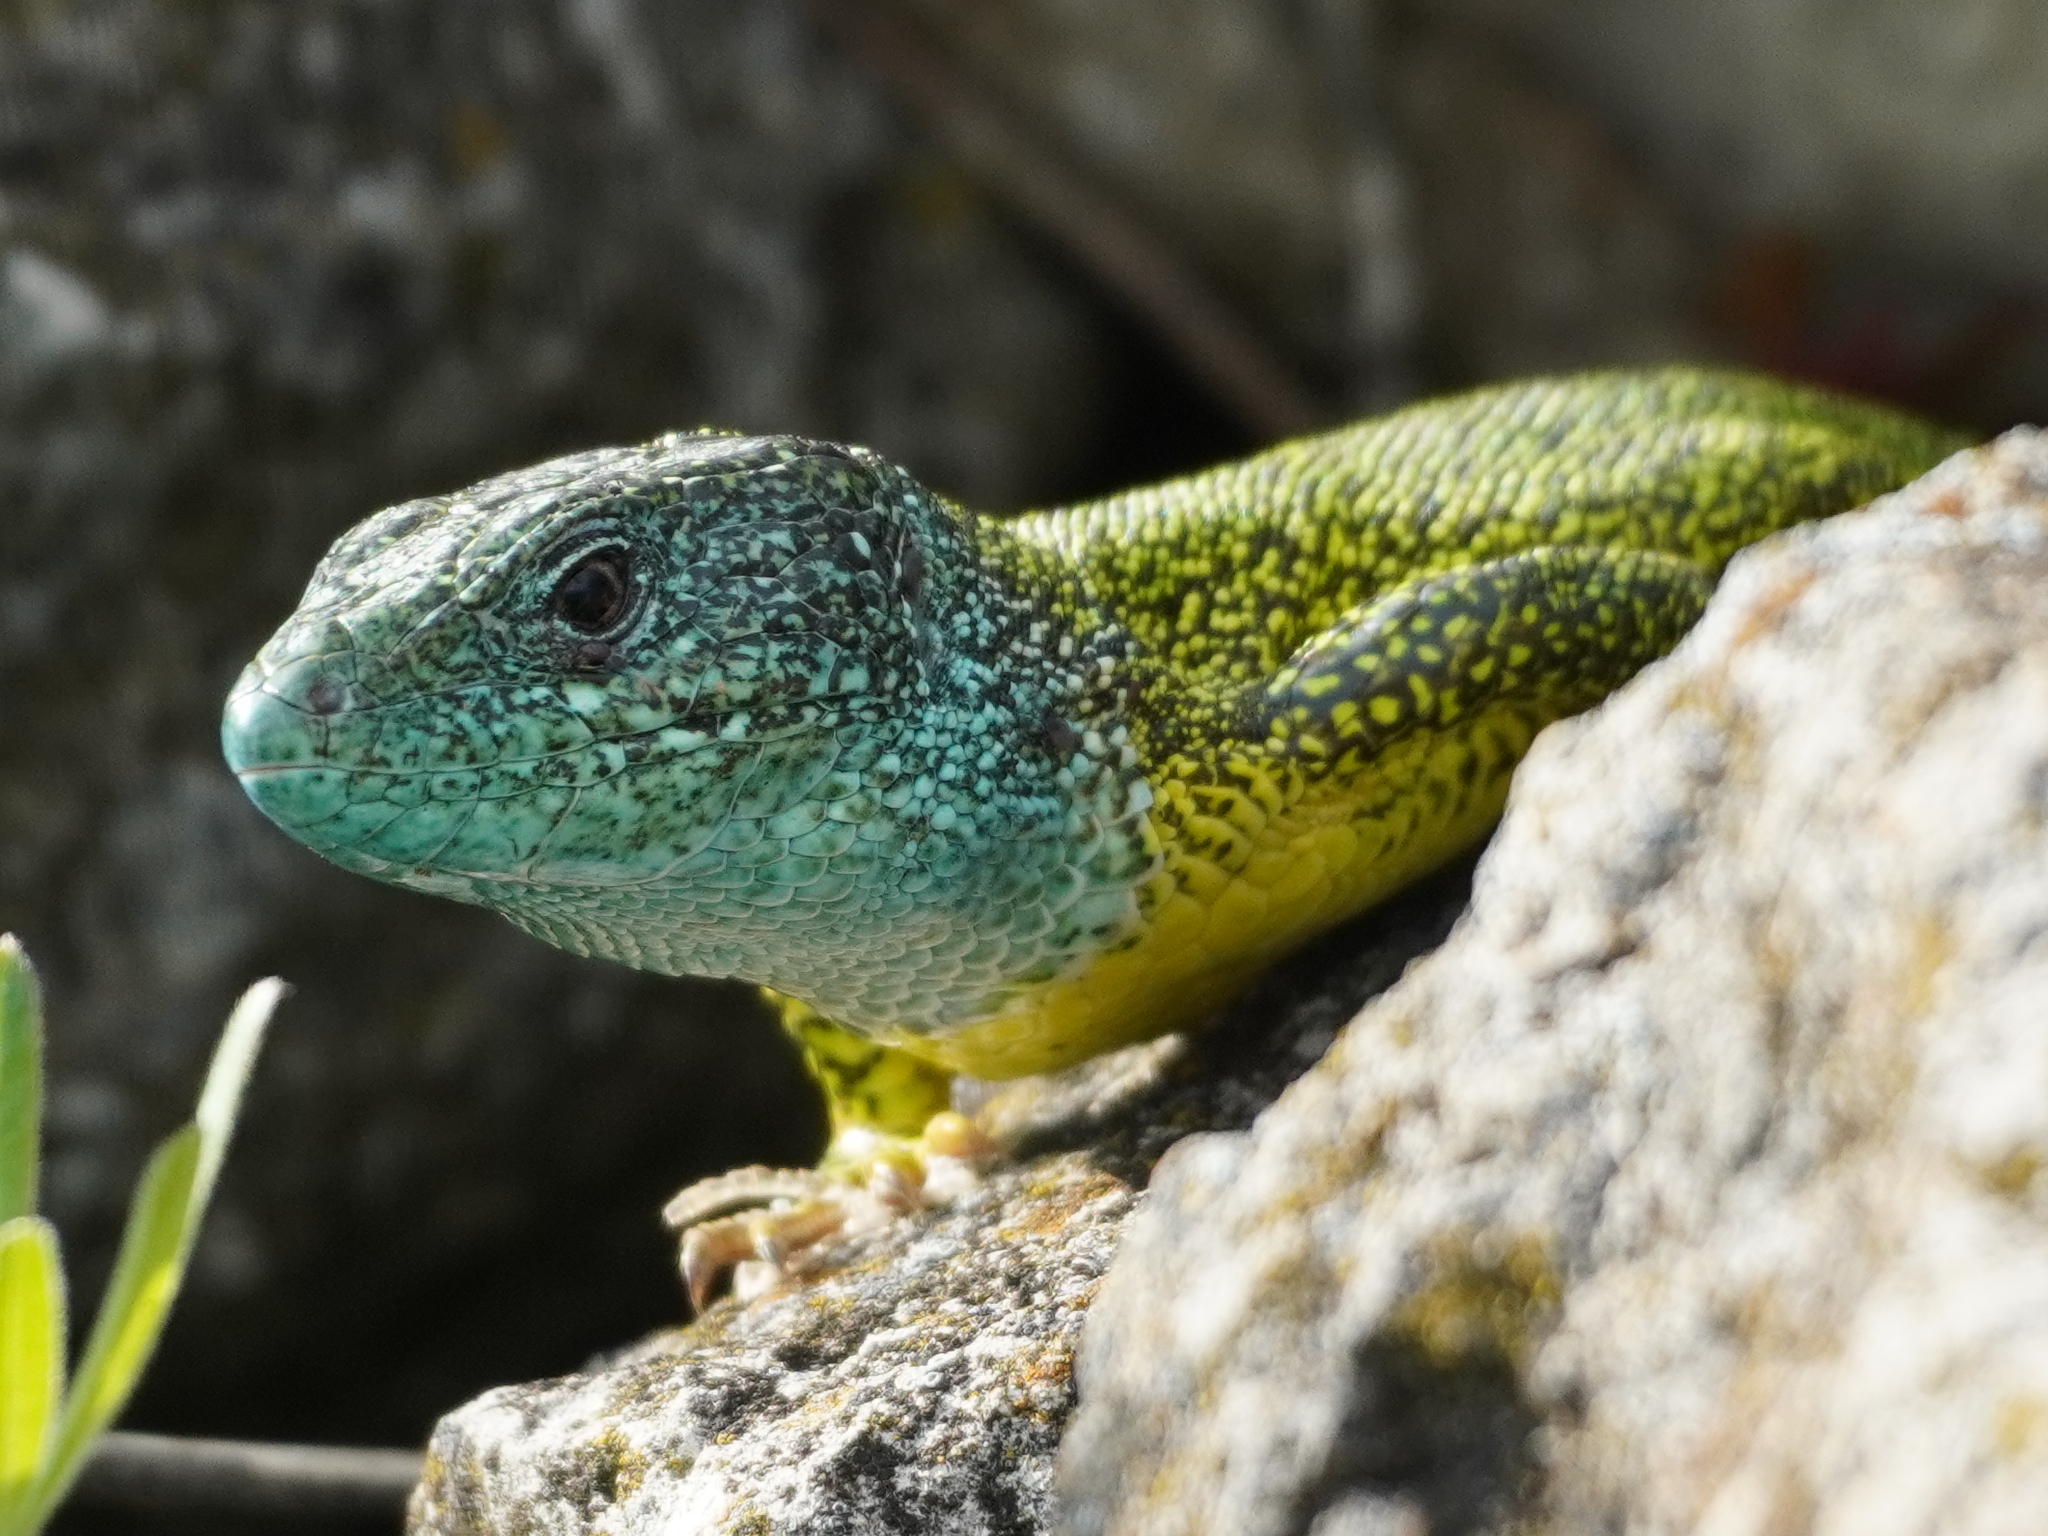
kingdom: Animalia
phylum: Chordata
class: Squamata
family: Lacertidae
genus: Lacerta
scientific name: Lacerta viridis
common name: European green lizard
